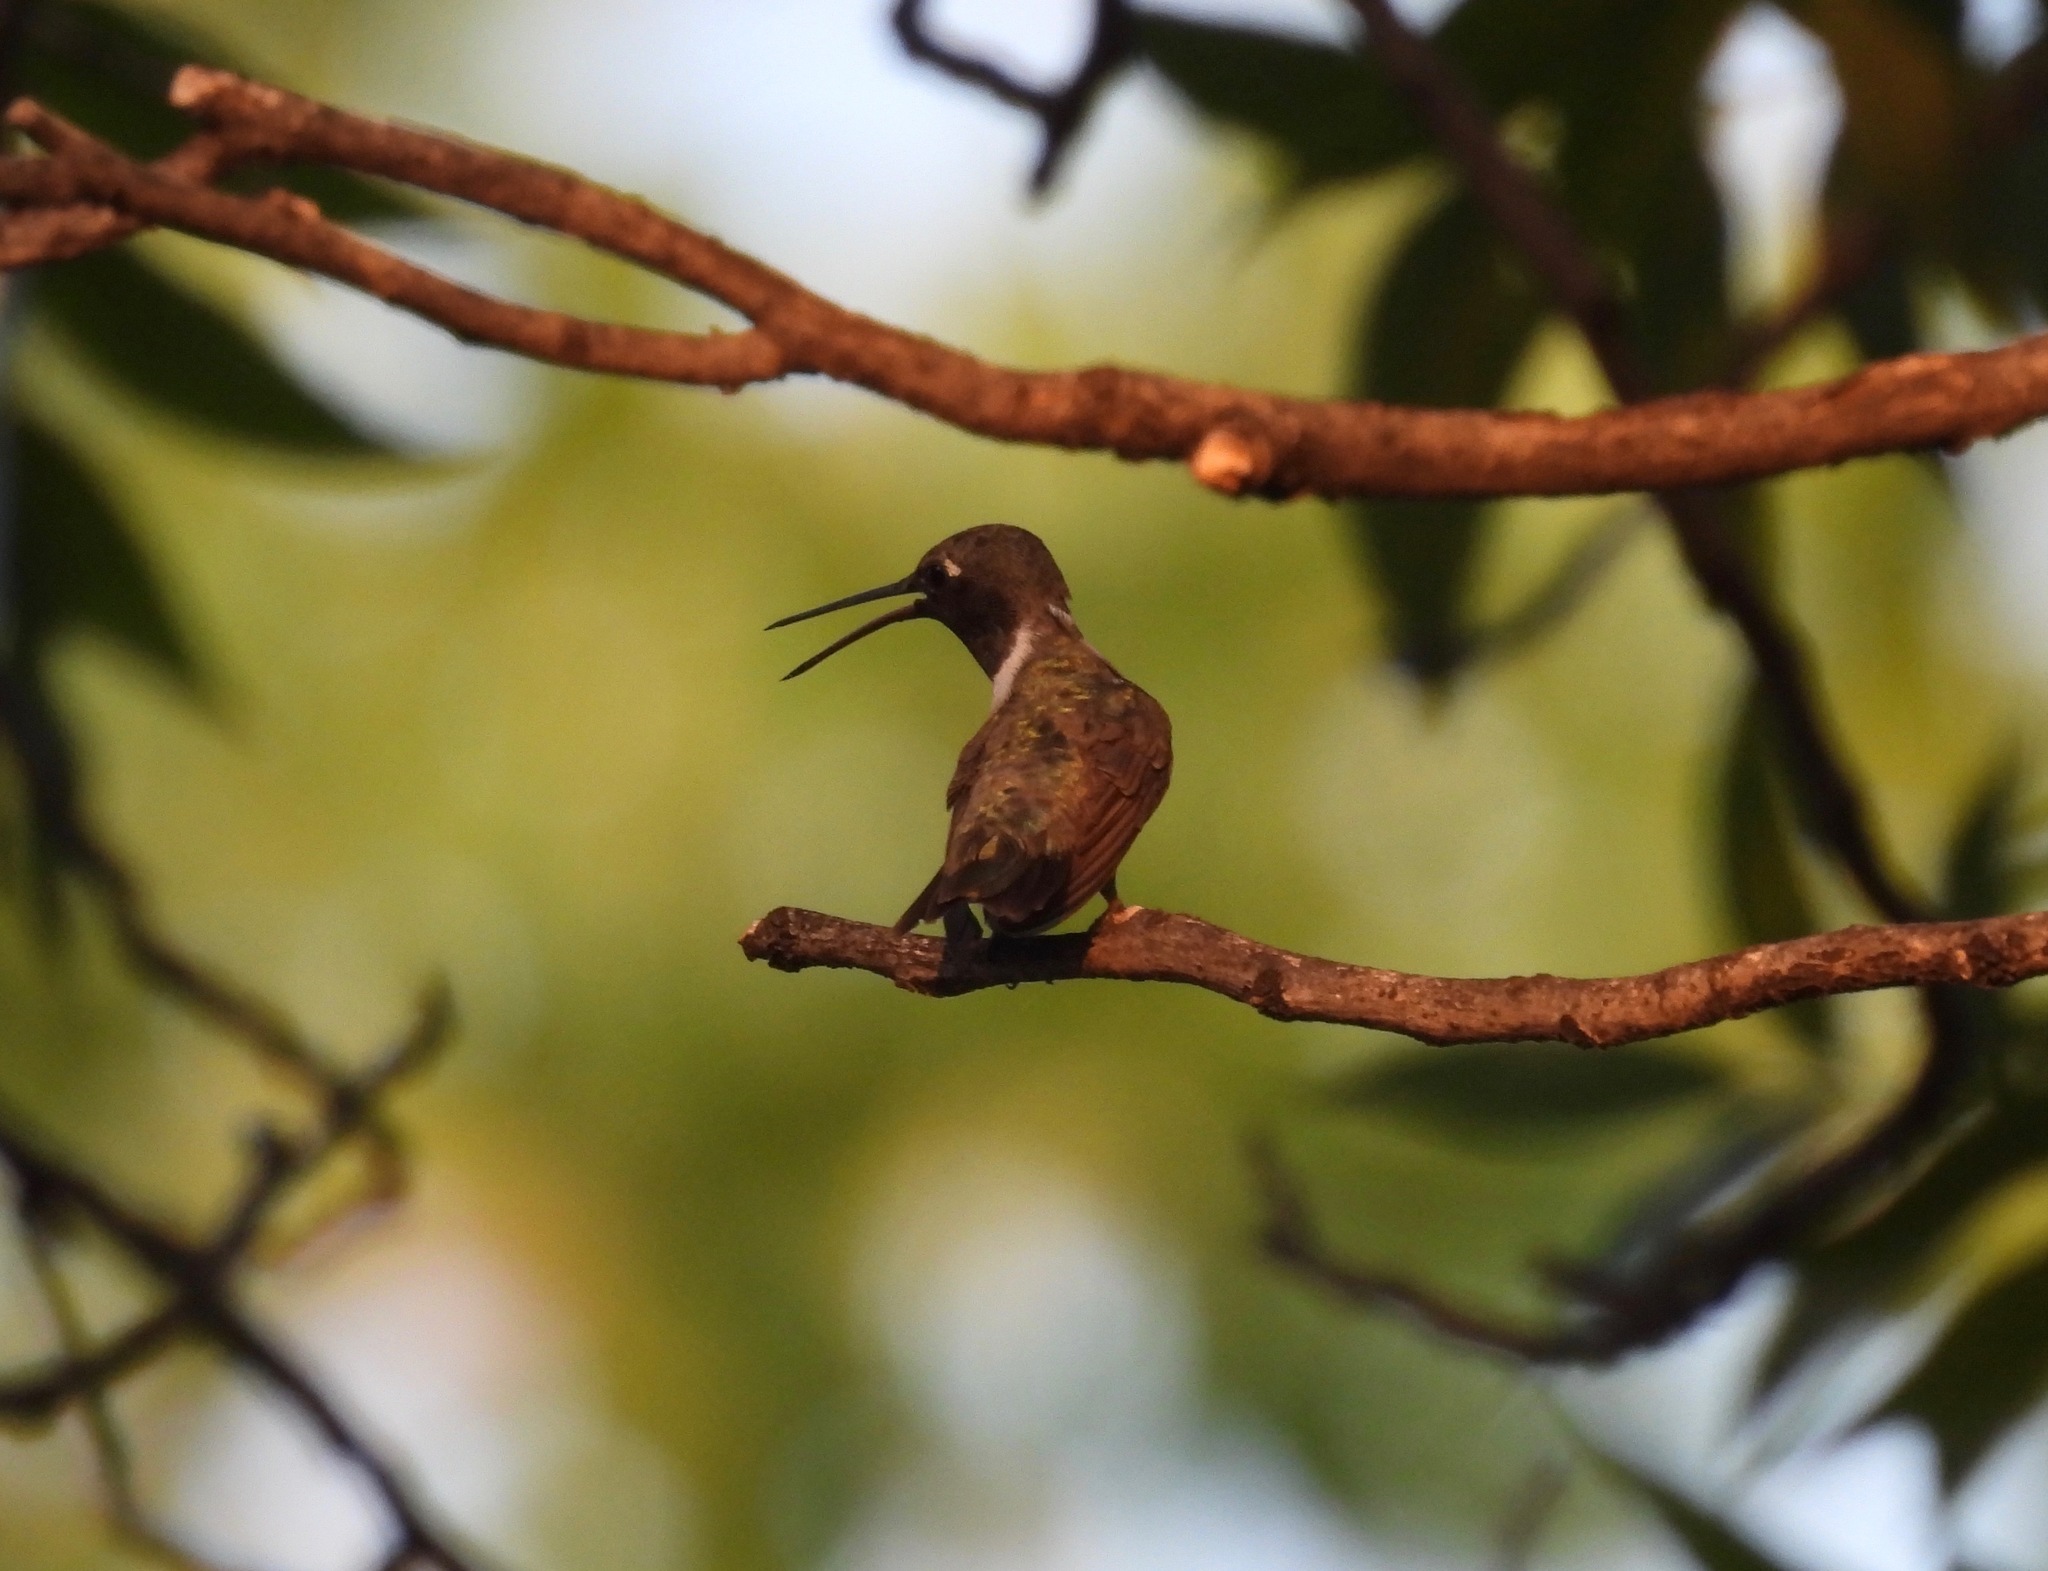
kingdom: Animalia
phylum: Chordata
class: Aves
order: Apodiformes
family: Trochilidae
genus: Archilochus
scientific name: Archilochus alexandri
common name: Black-chinned hummingbird
